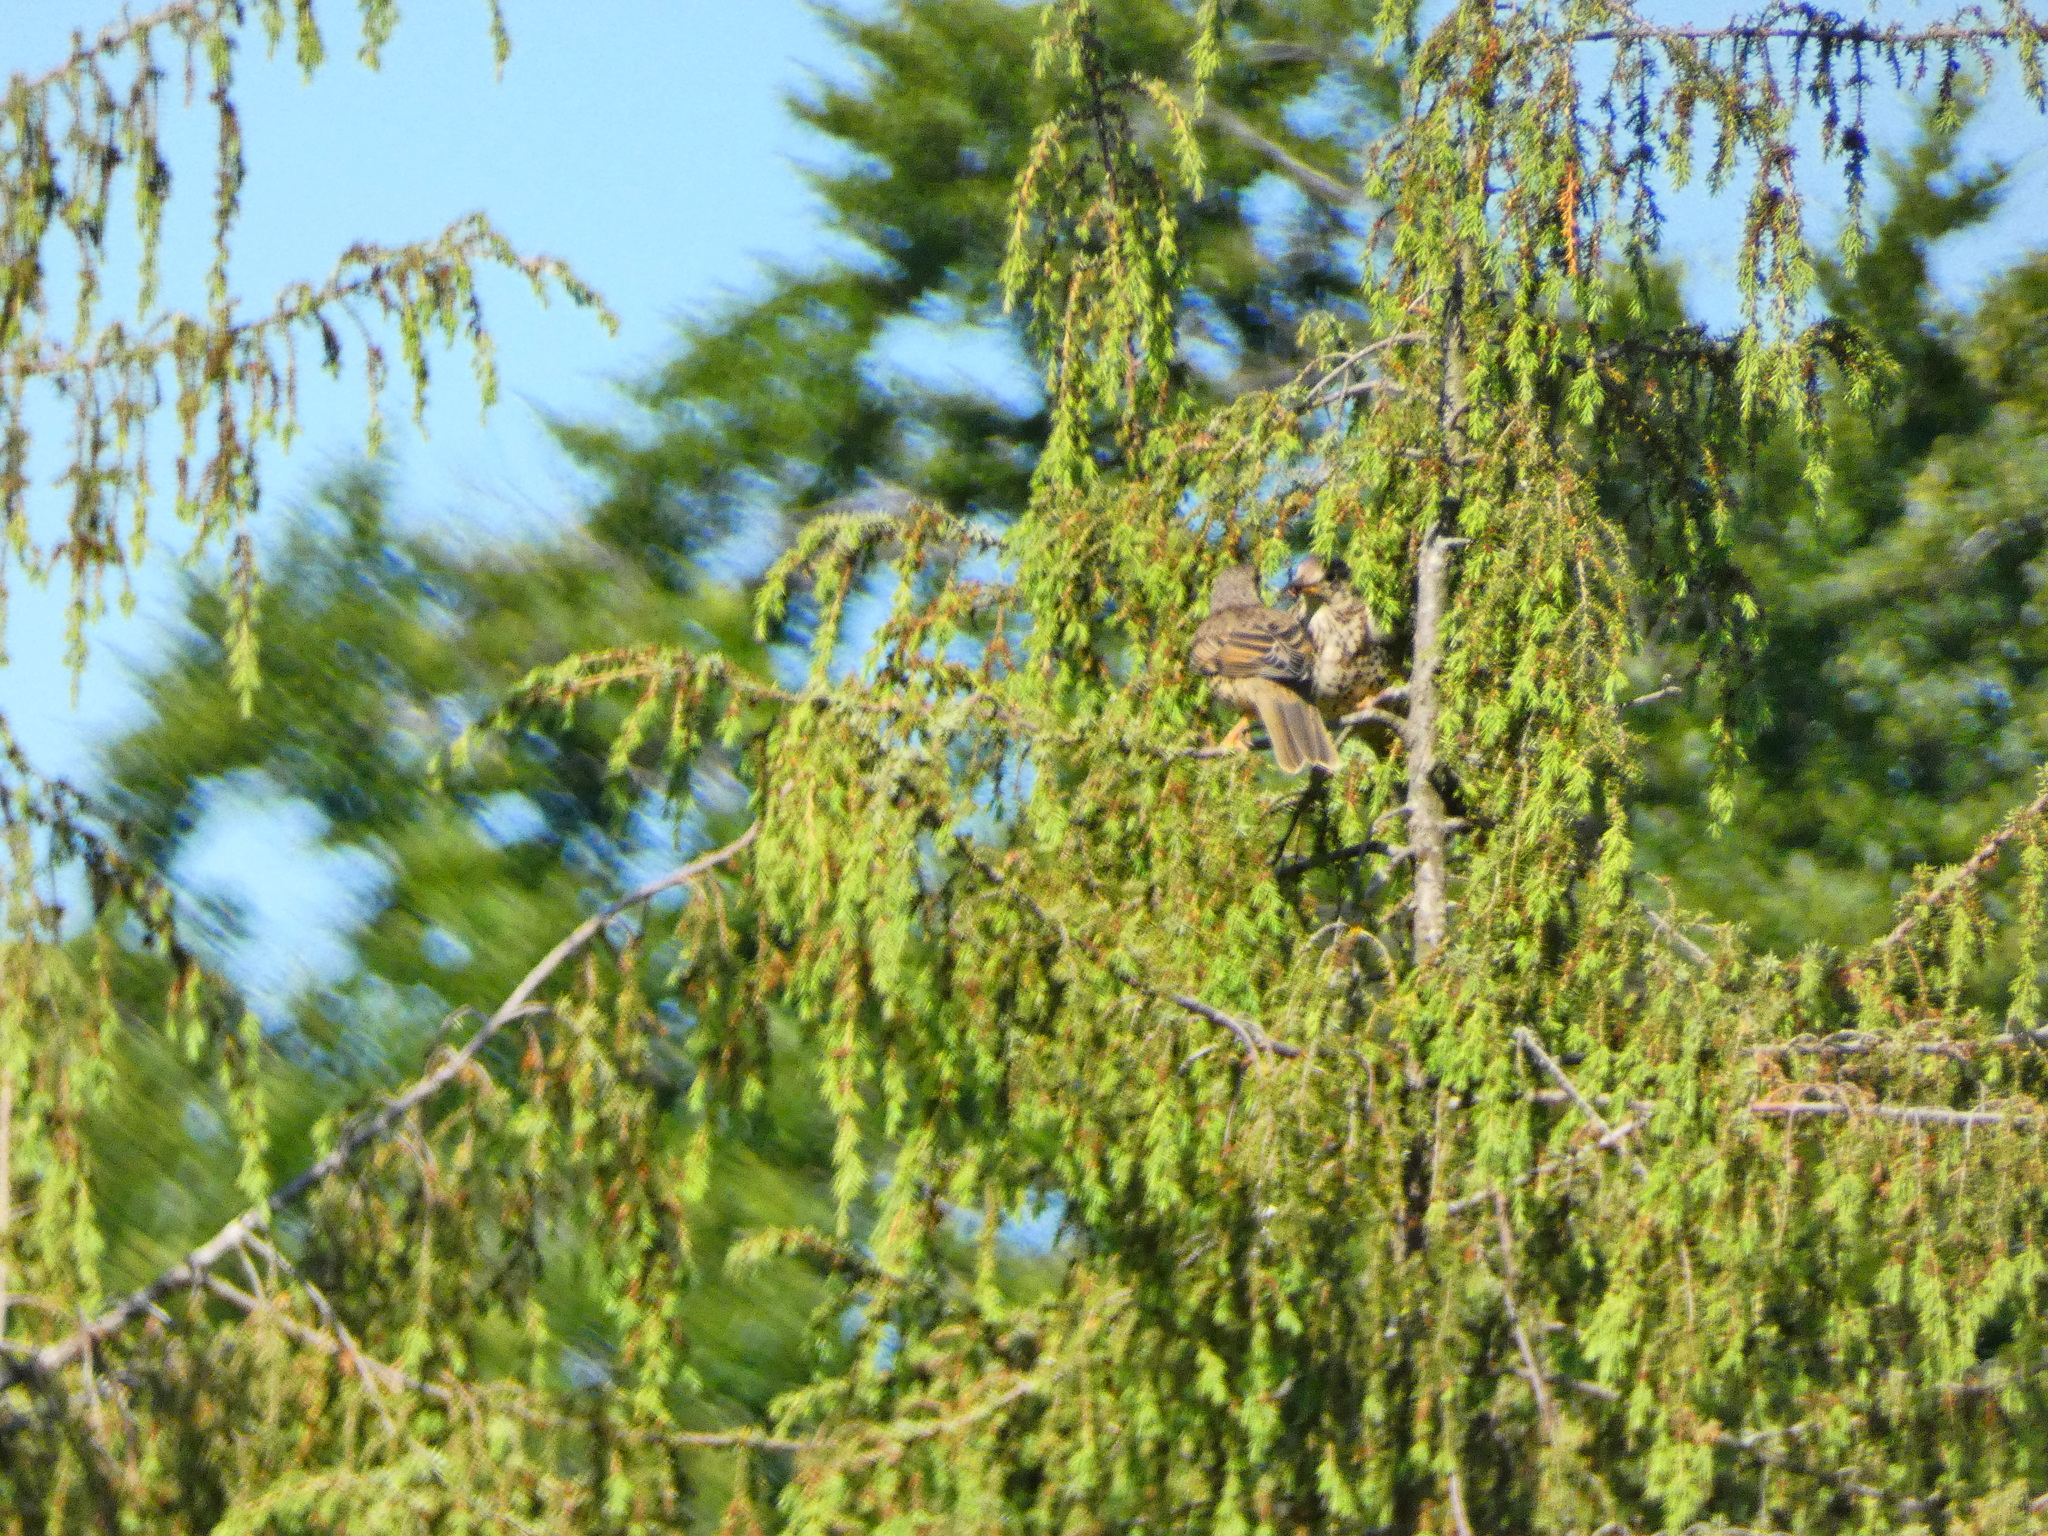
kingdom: Animalia
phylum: Chordata
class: Aves
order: Passeriformes
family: Turdidae
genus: Turdus
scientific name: Turdus viscivorus
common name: Mistle thrush
